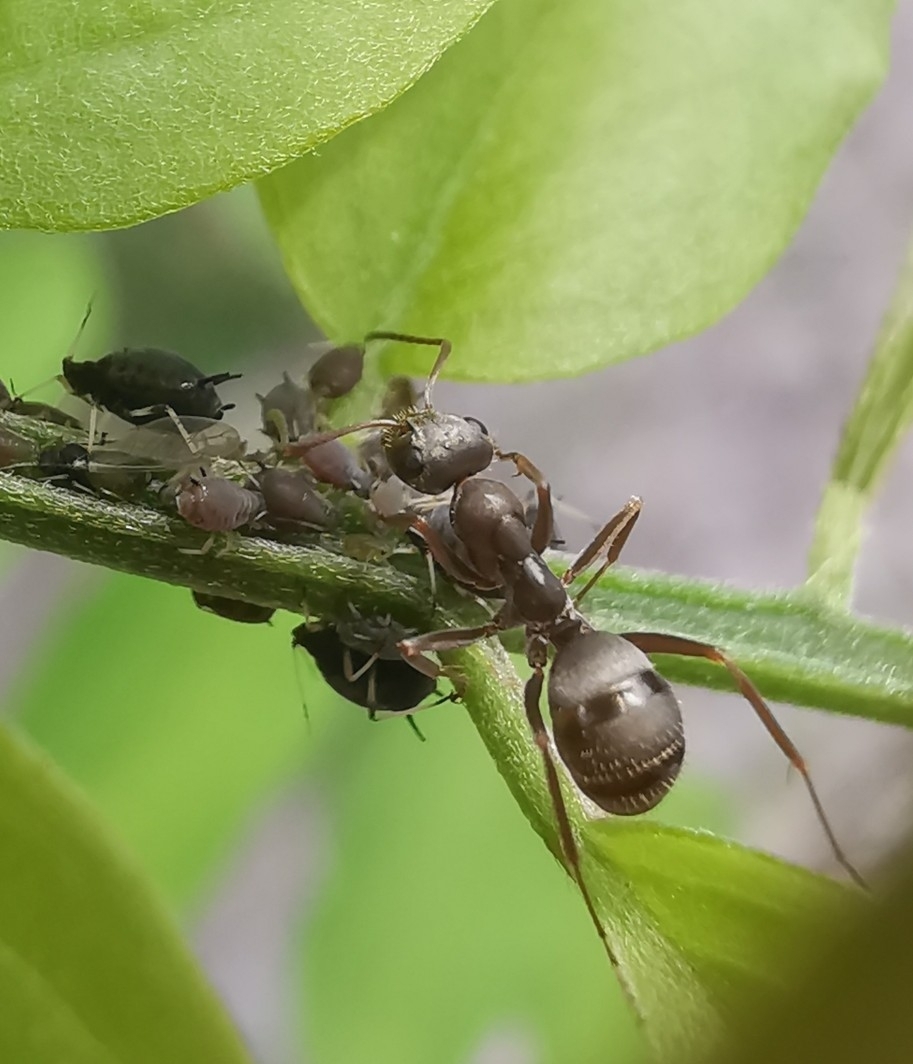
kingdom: Animalia
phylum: Arthropoda
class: Insecta
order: Hymenoptera
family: Formicidae
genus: Formica
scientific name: Formica cinerea
